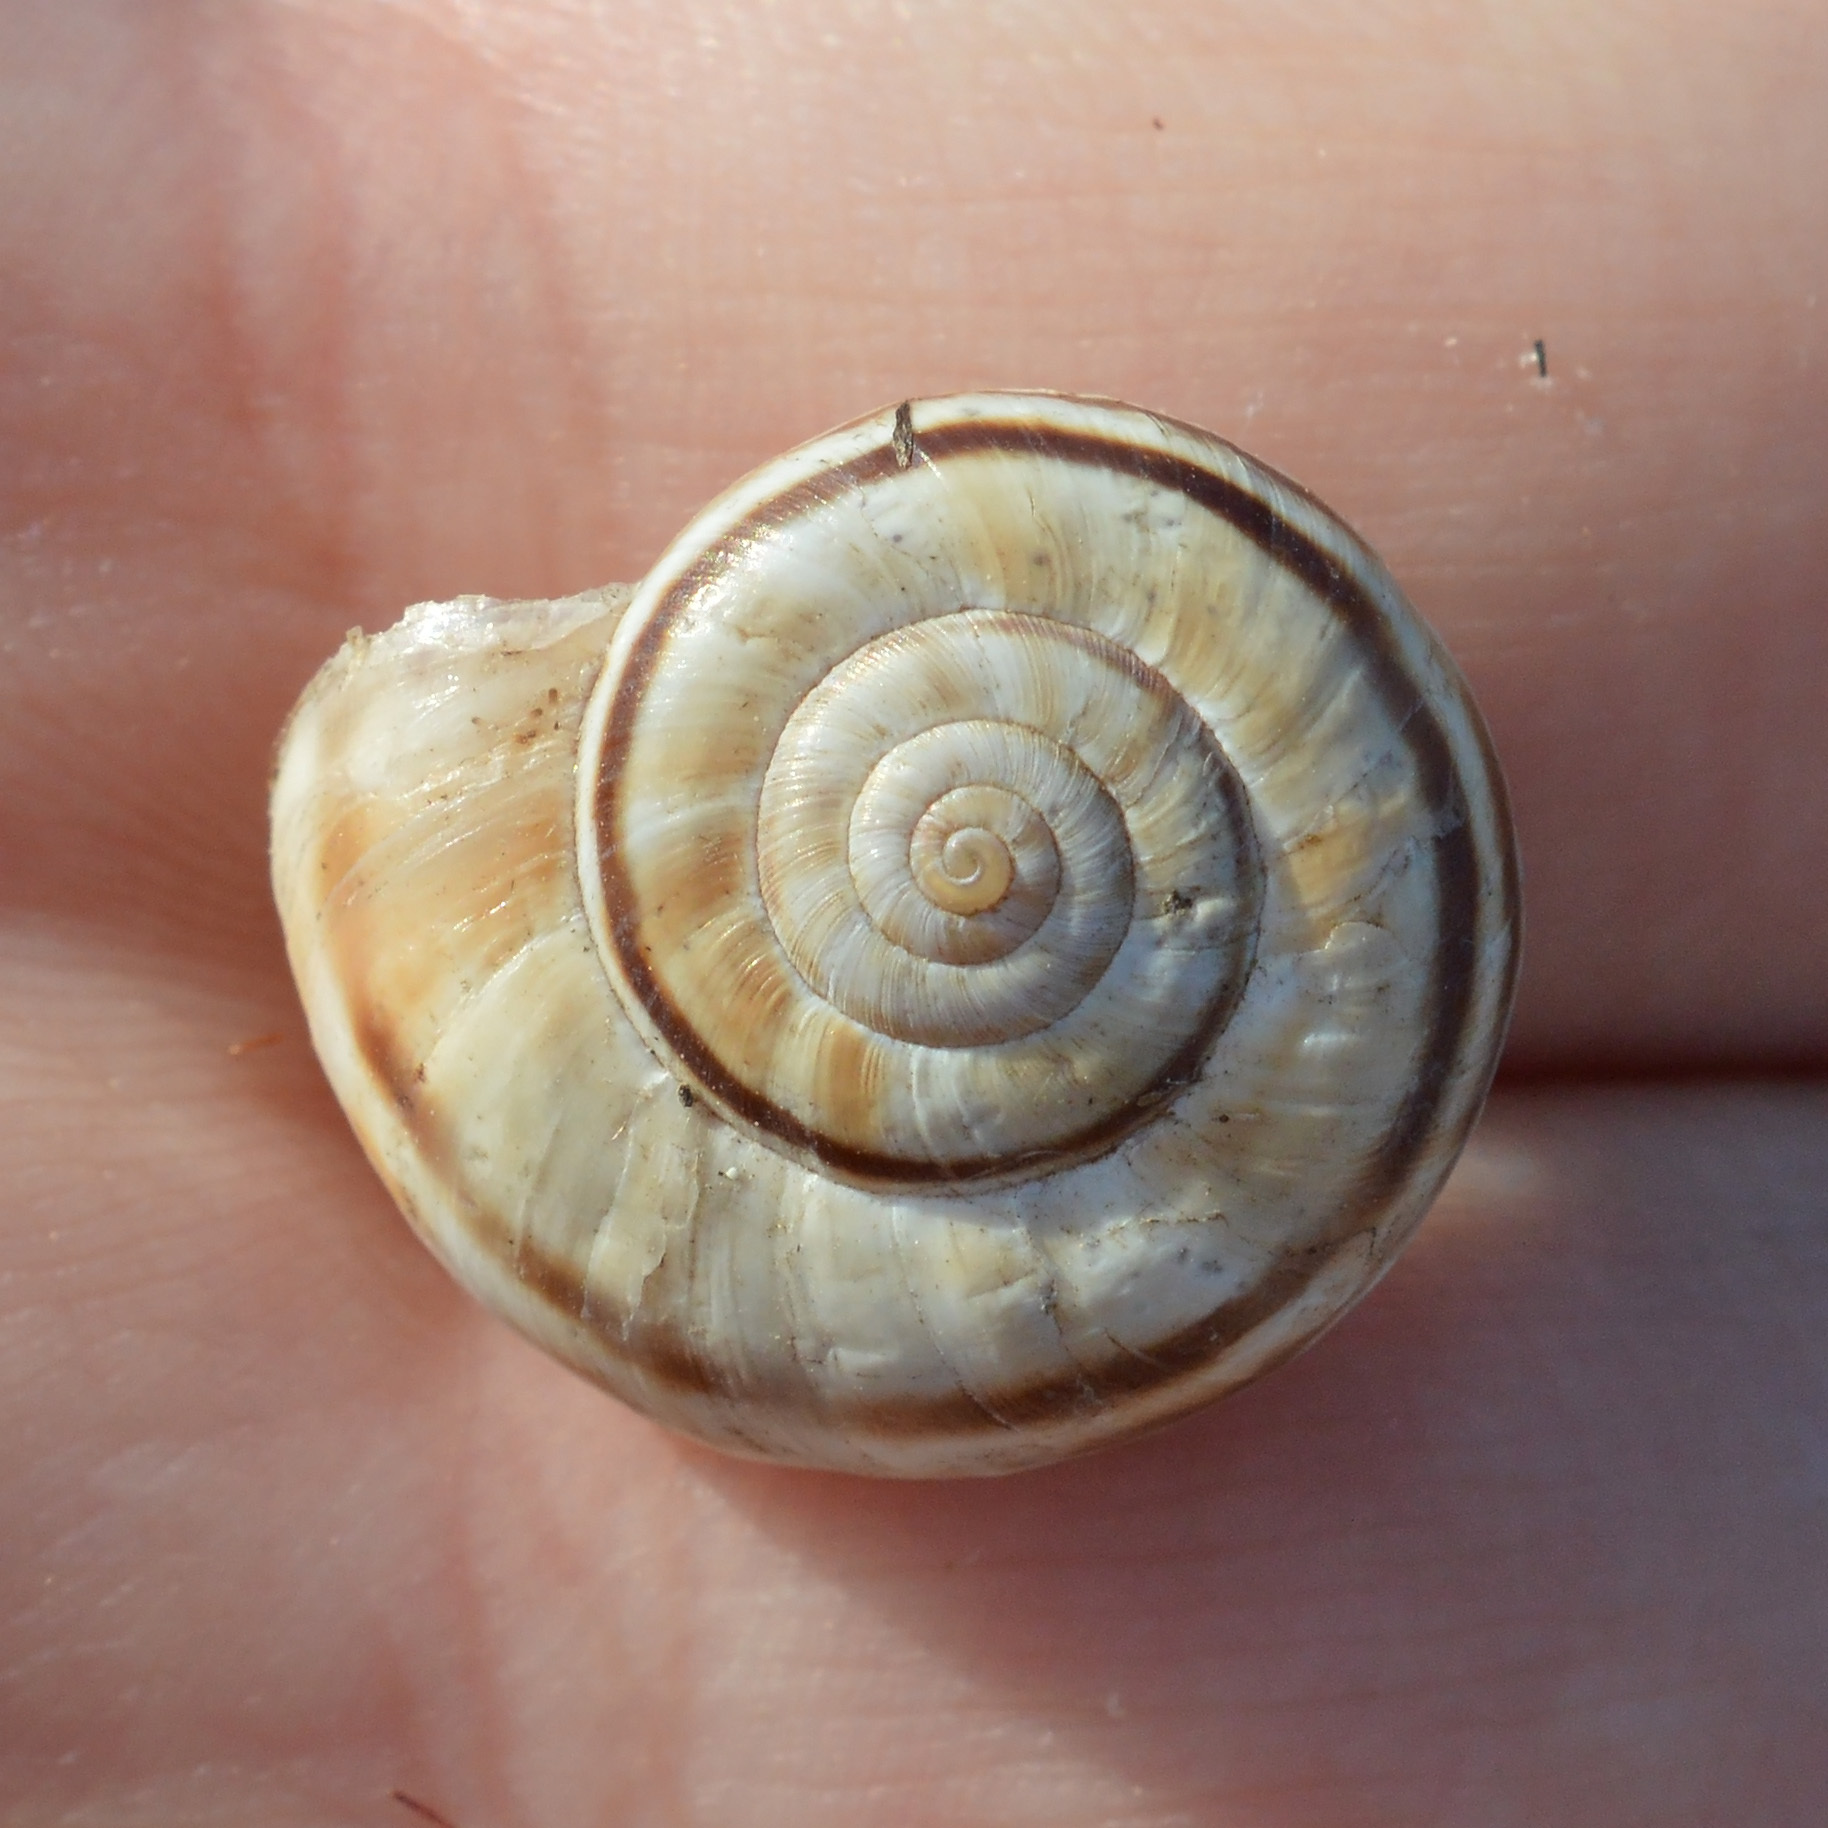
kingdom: Animalia
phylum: Mollusca
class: Gastropoda
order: Stylommatophora
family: Geomitridae
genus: Xerolenta
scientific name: Xerolenta obvia
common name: White heath snail
